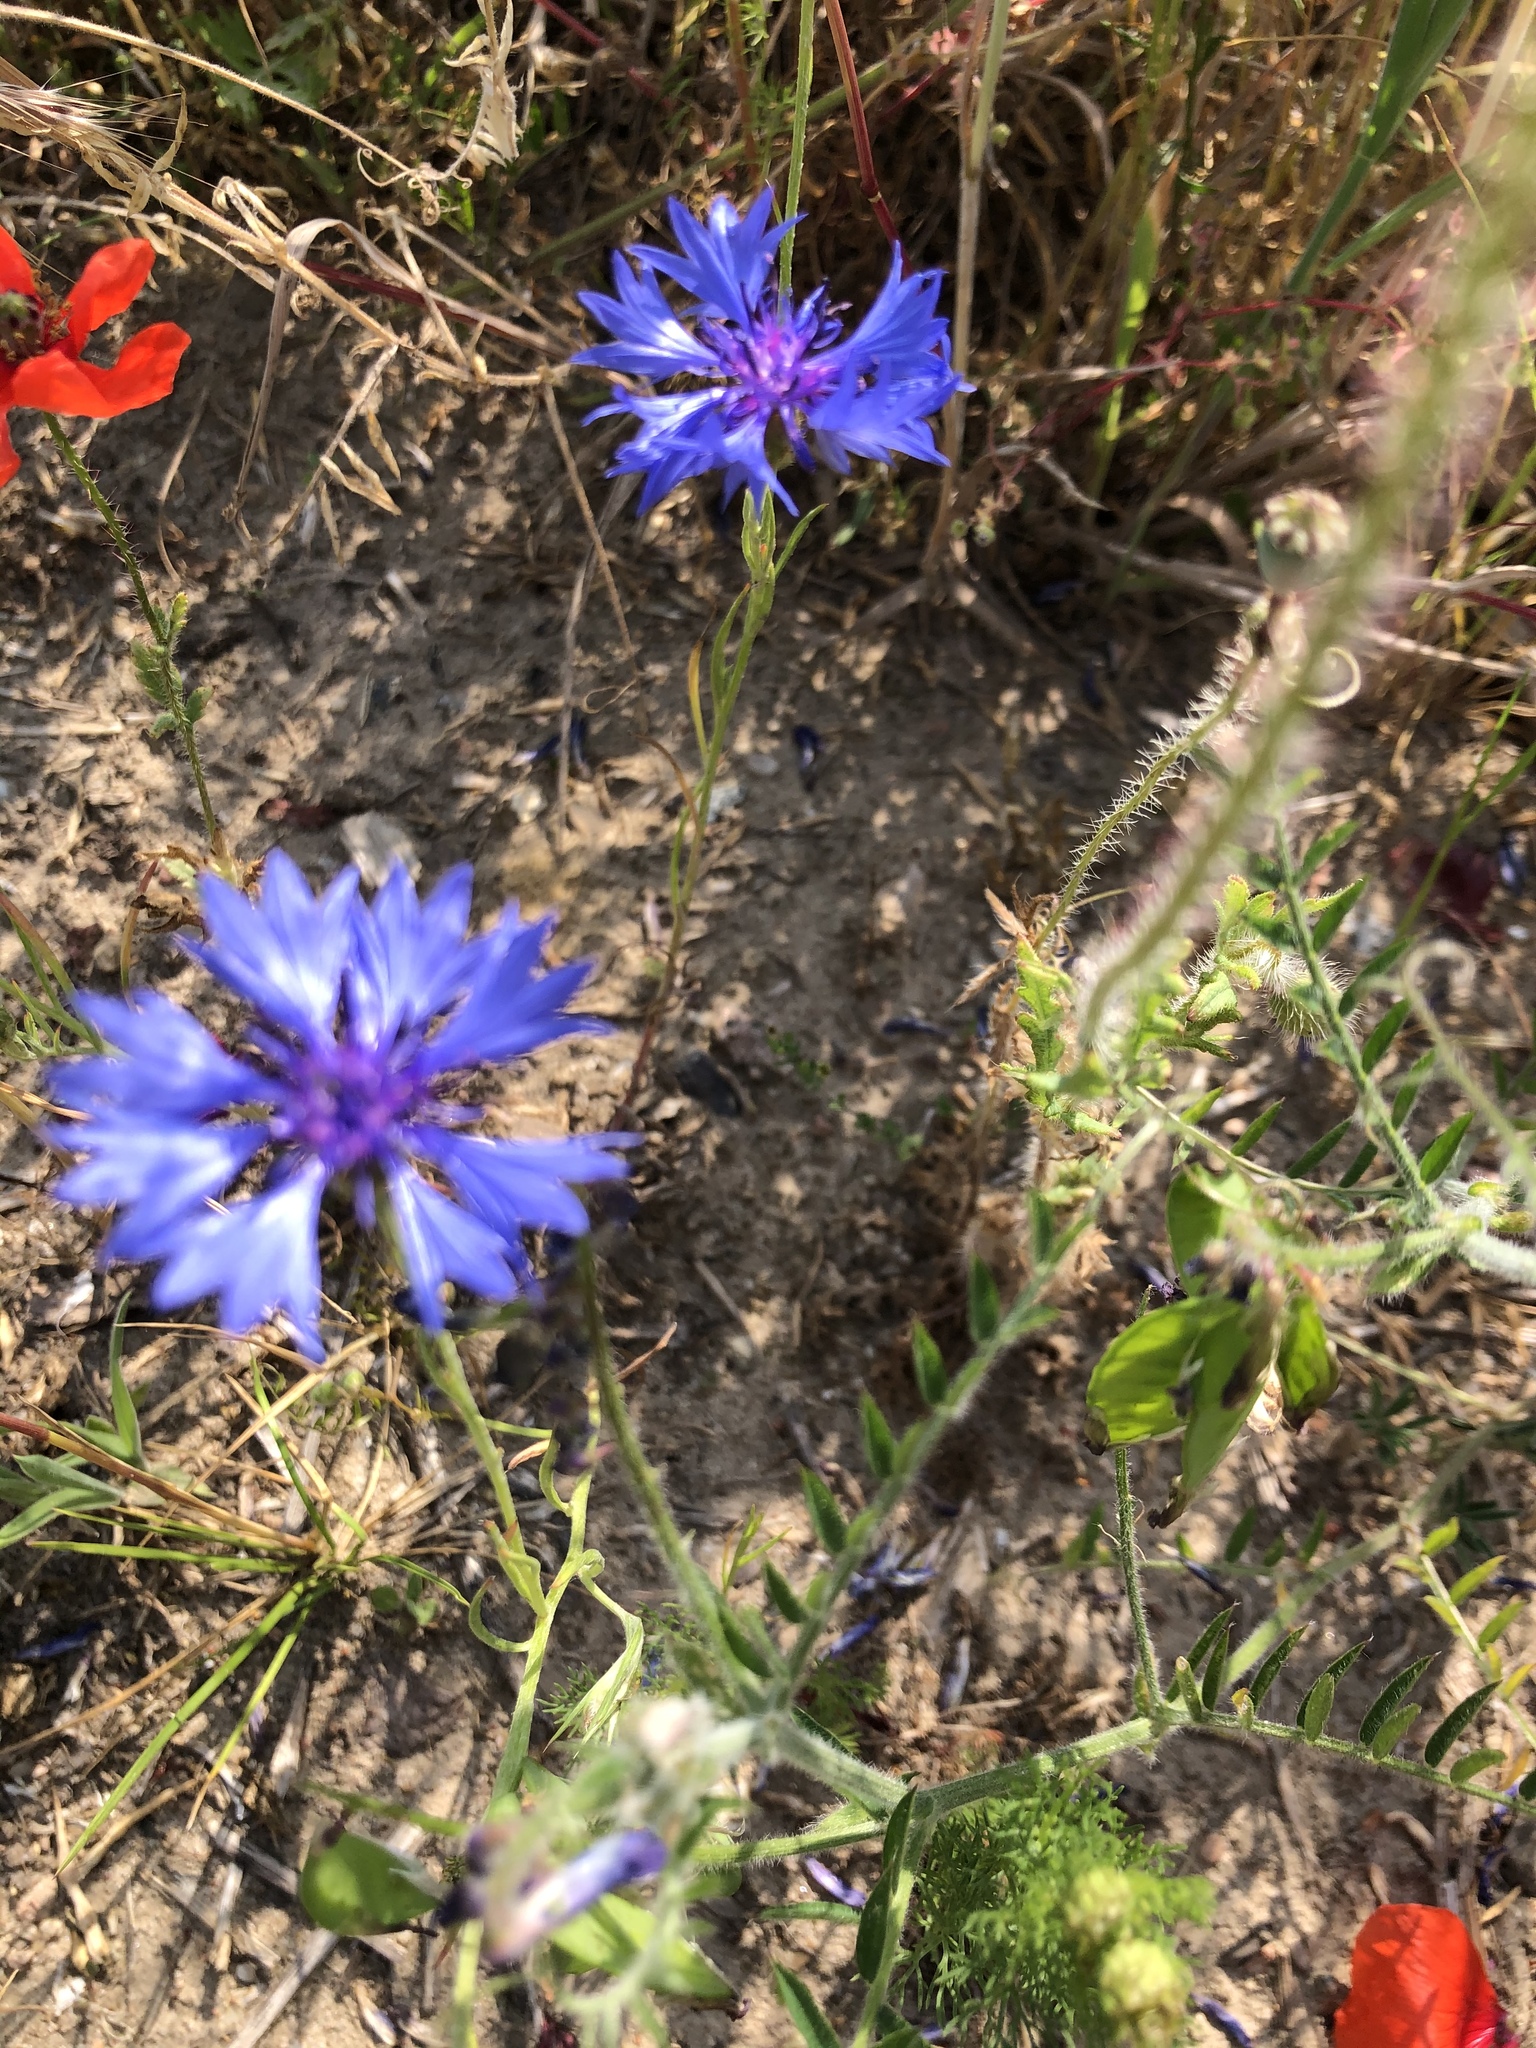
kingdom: Plantae
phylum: Tracheophyta
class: Magnoliopsida
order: Asterales
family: Asteraceae
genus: Centaurea
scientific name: Centaurea cyanus
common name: Cornflower
